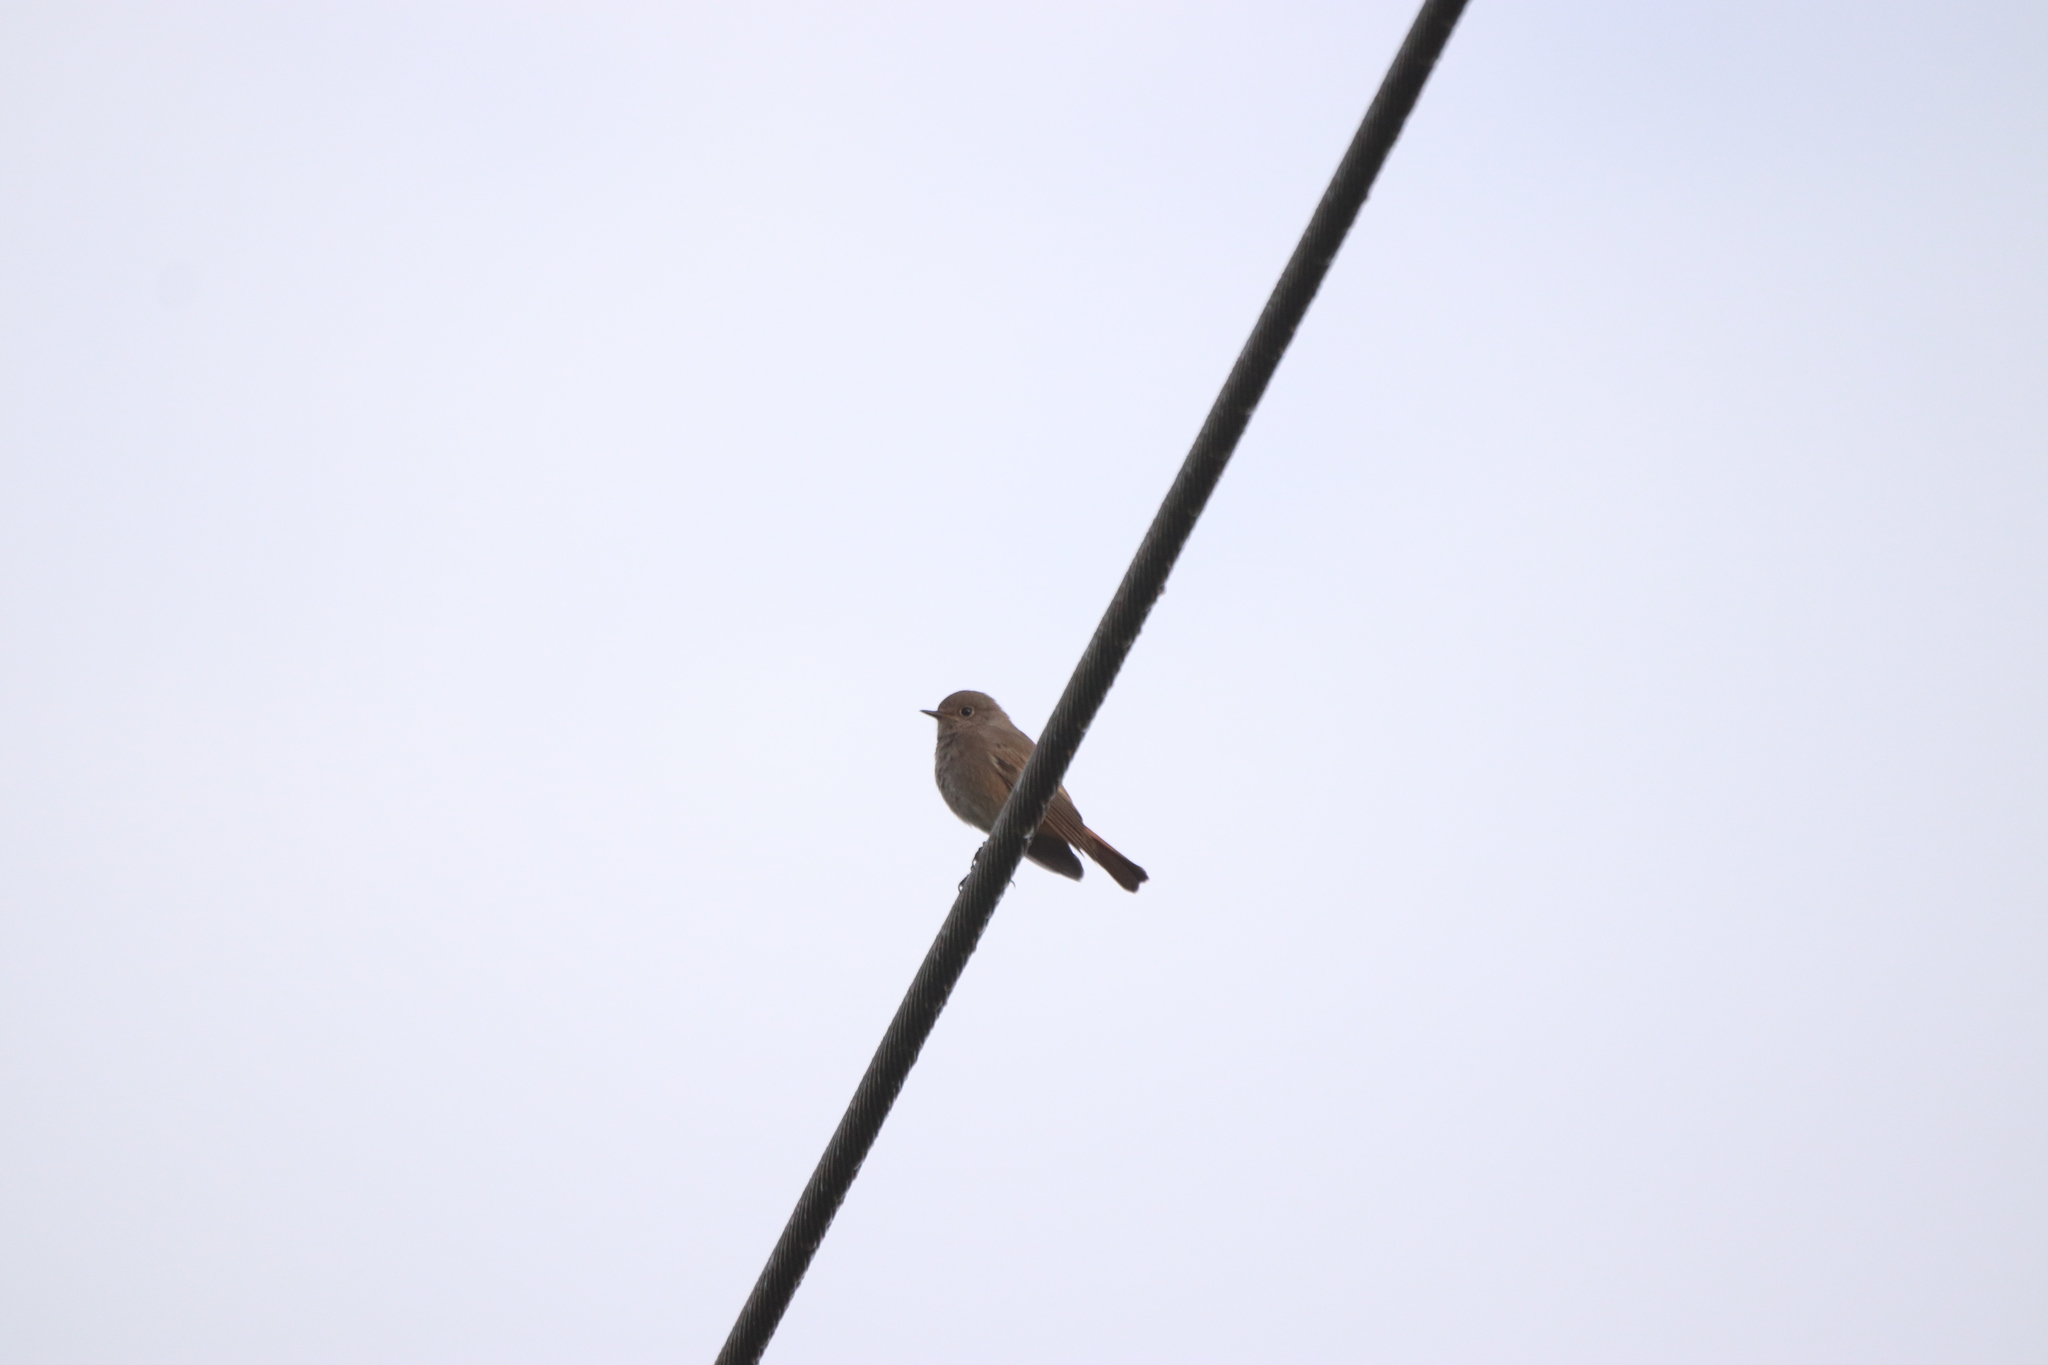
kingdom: Animalia
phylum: Chordata
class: Aves
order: Passeriformes
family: Muscicapidae
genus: Phoenicurus
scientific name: Phoenicurus ochruros
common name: Black redstart
